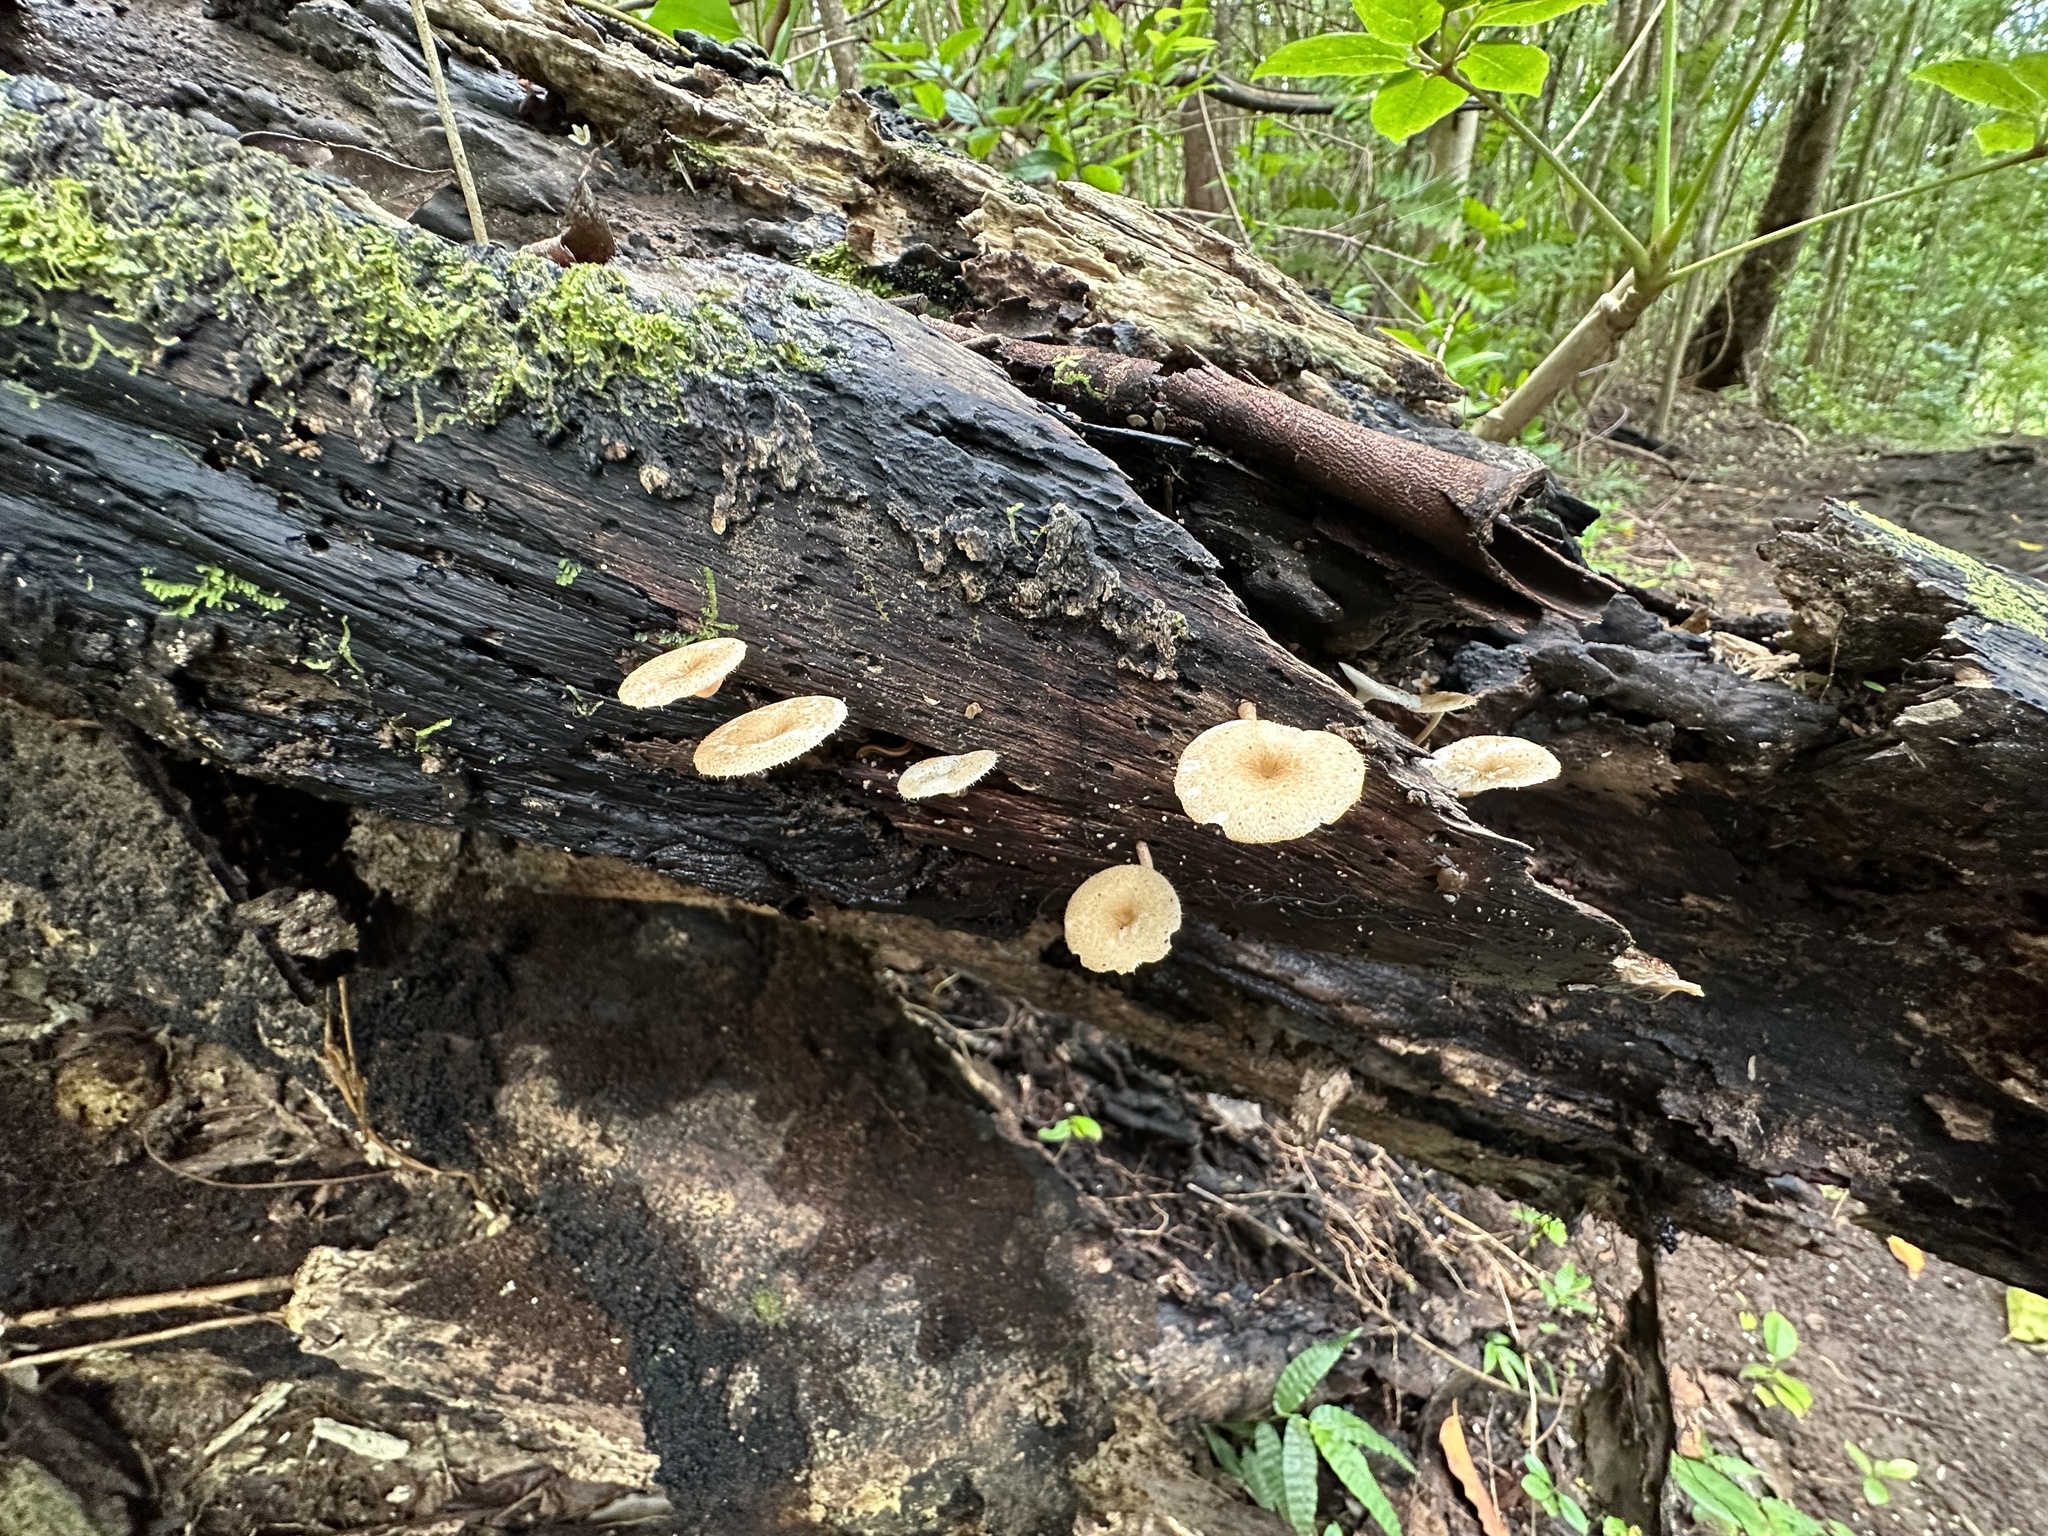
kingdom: Fungi
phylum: Basidiomycota
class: Agaricomycetes
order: Polyporales
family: Polyporaceae
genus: Lentinus
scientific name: Lentinus arcularius
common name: Spring polypore
